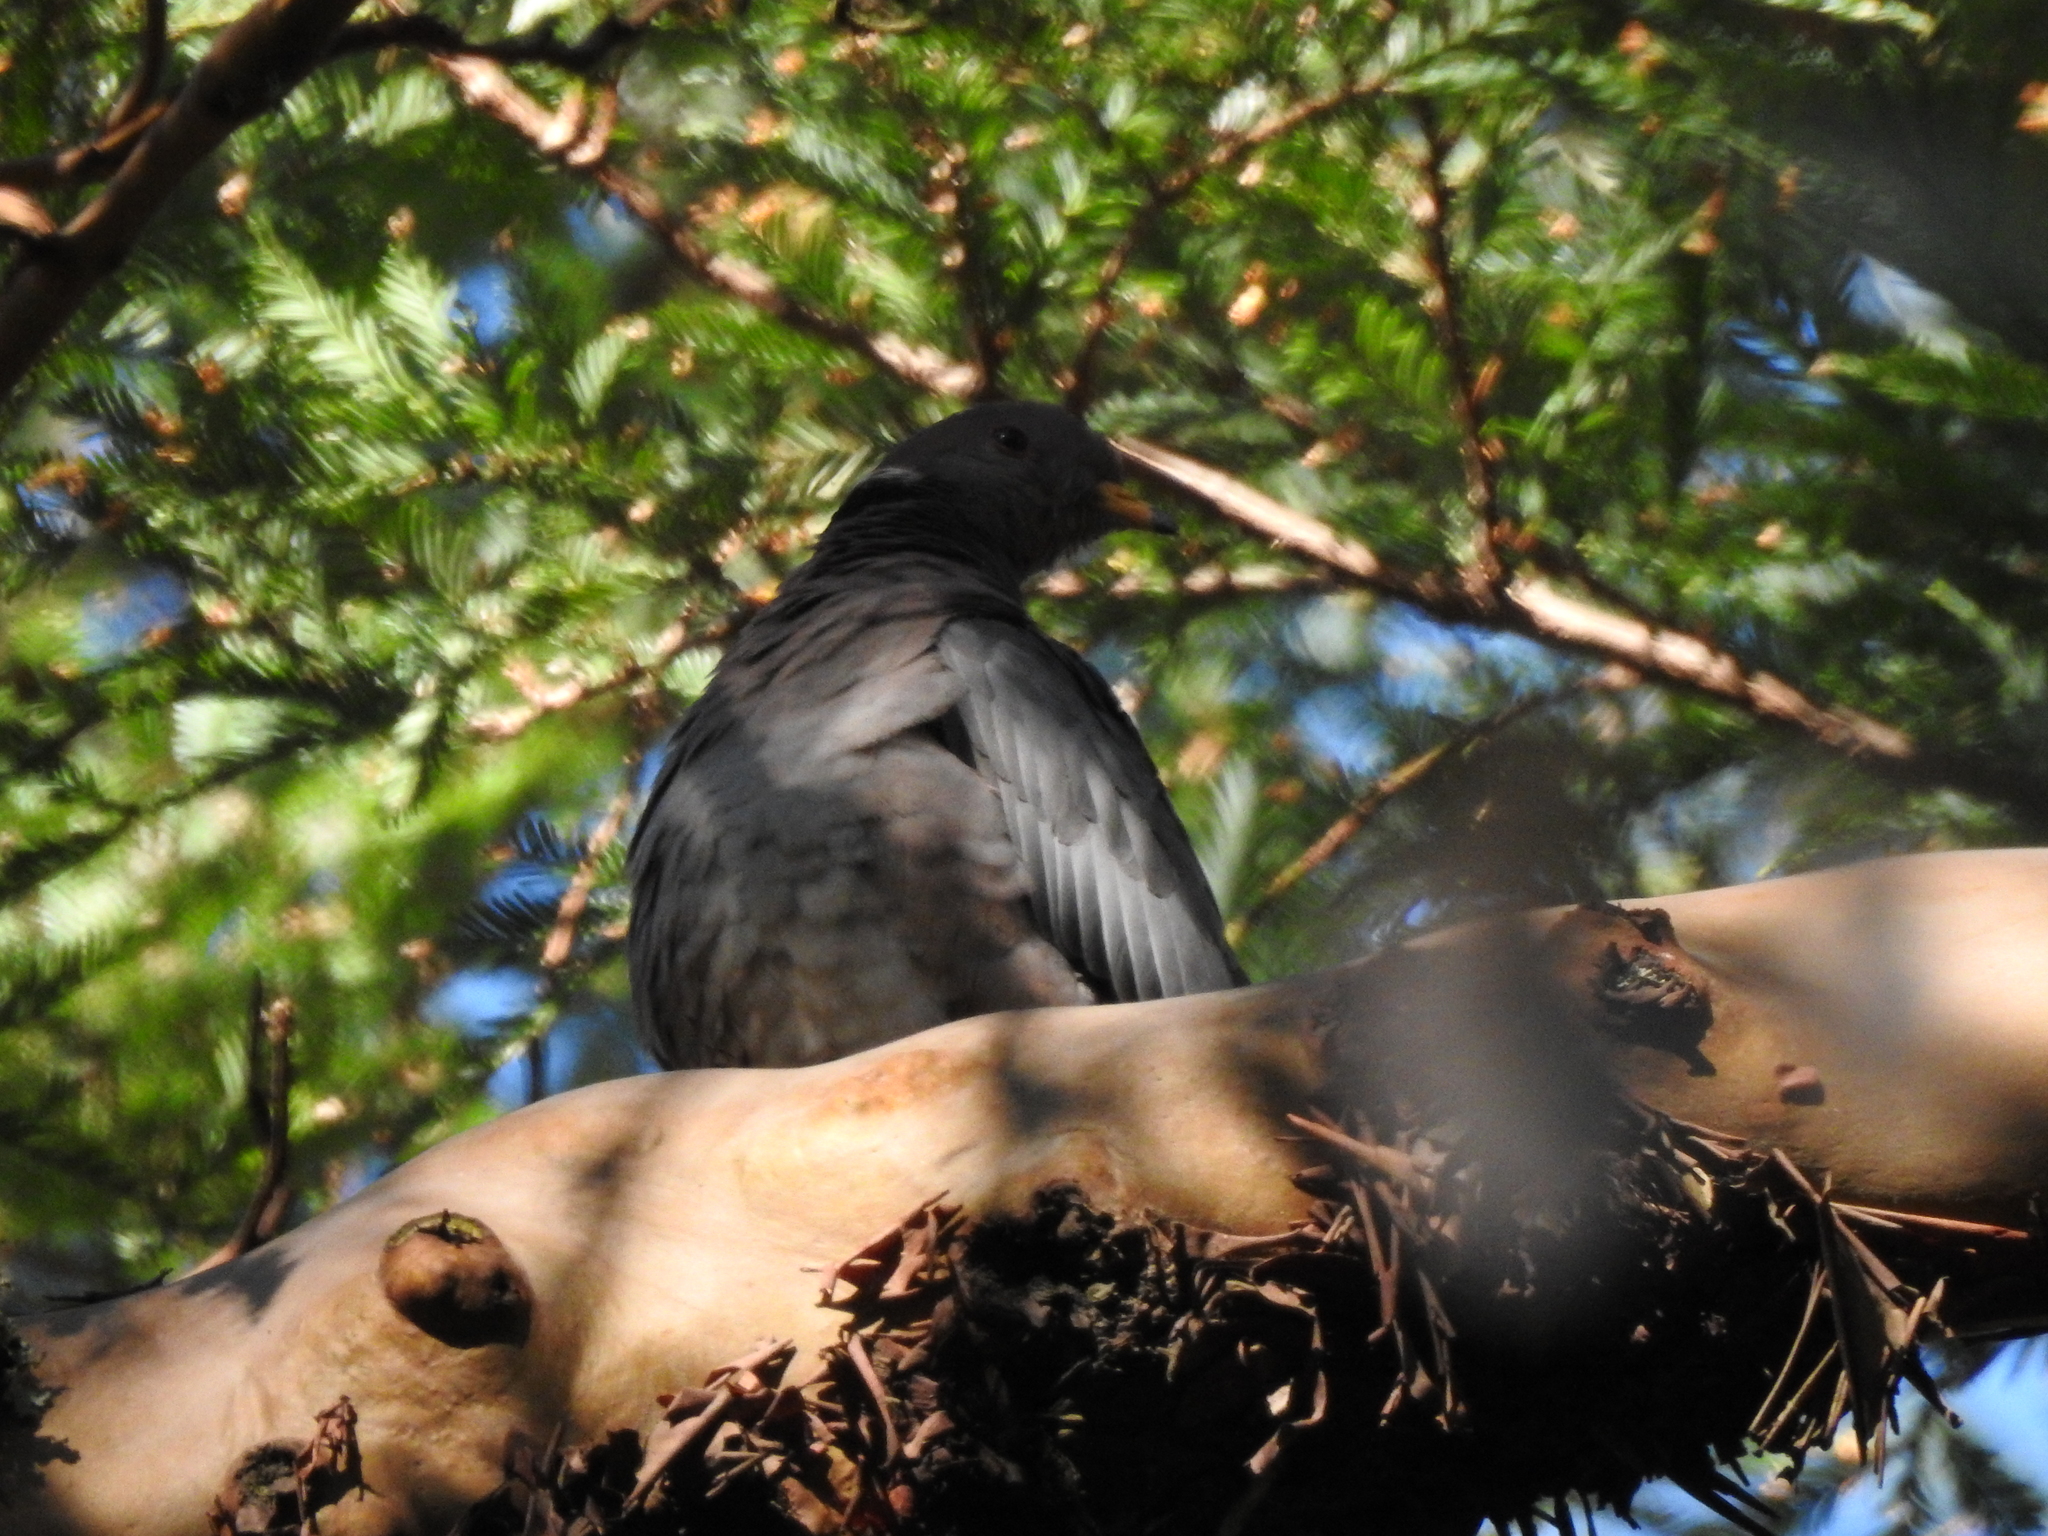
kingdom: Animalia
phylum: Chordata
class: Aves
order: Columbiformes
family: Columbidae
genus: Patagioenas
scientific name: Patagioenas fasciata
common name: Band-tailed pigeon
